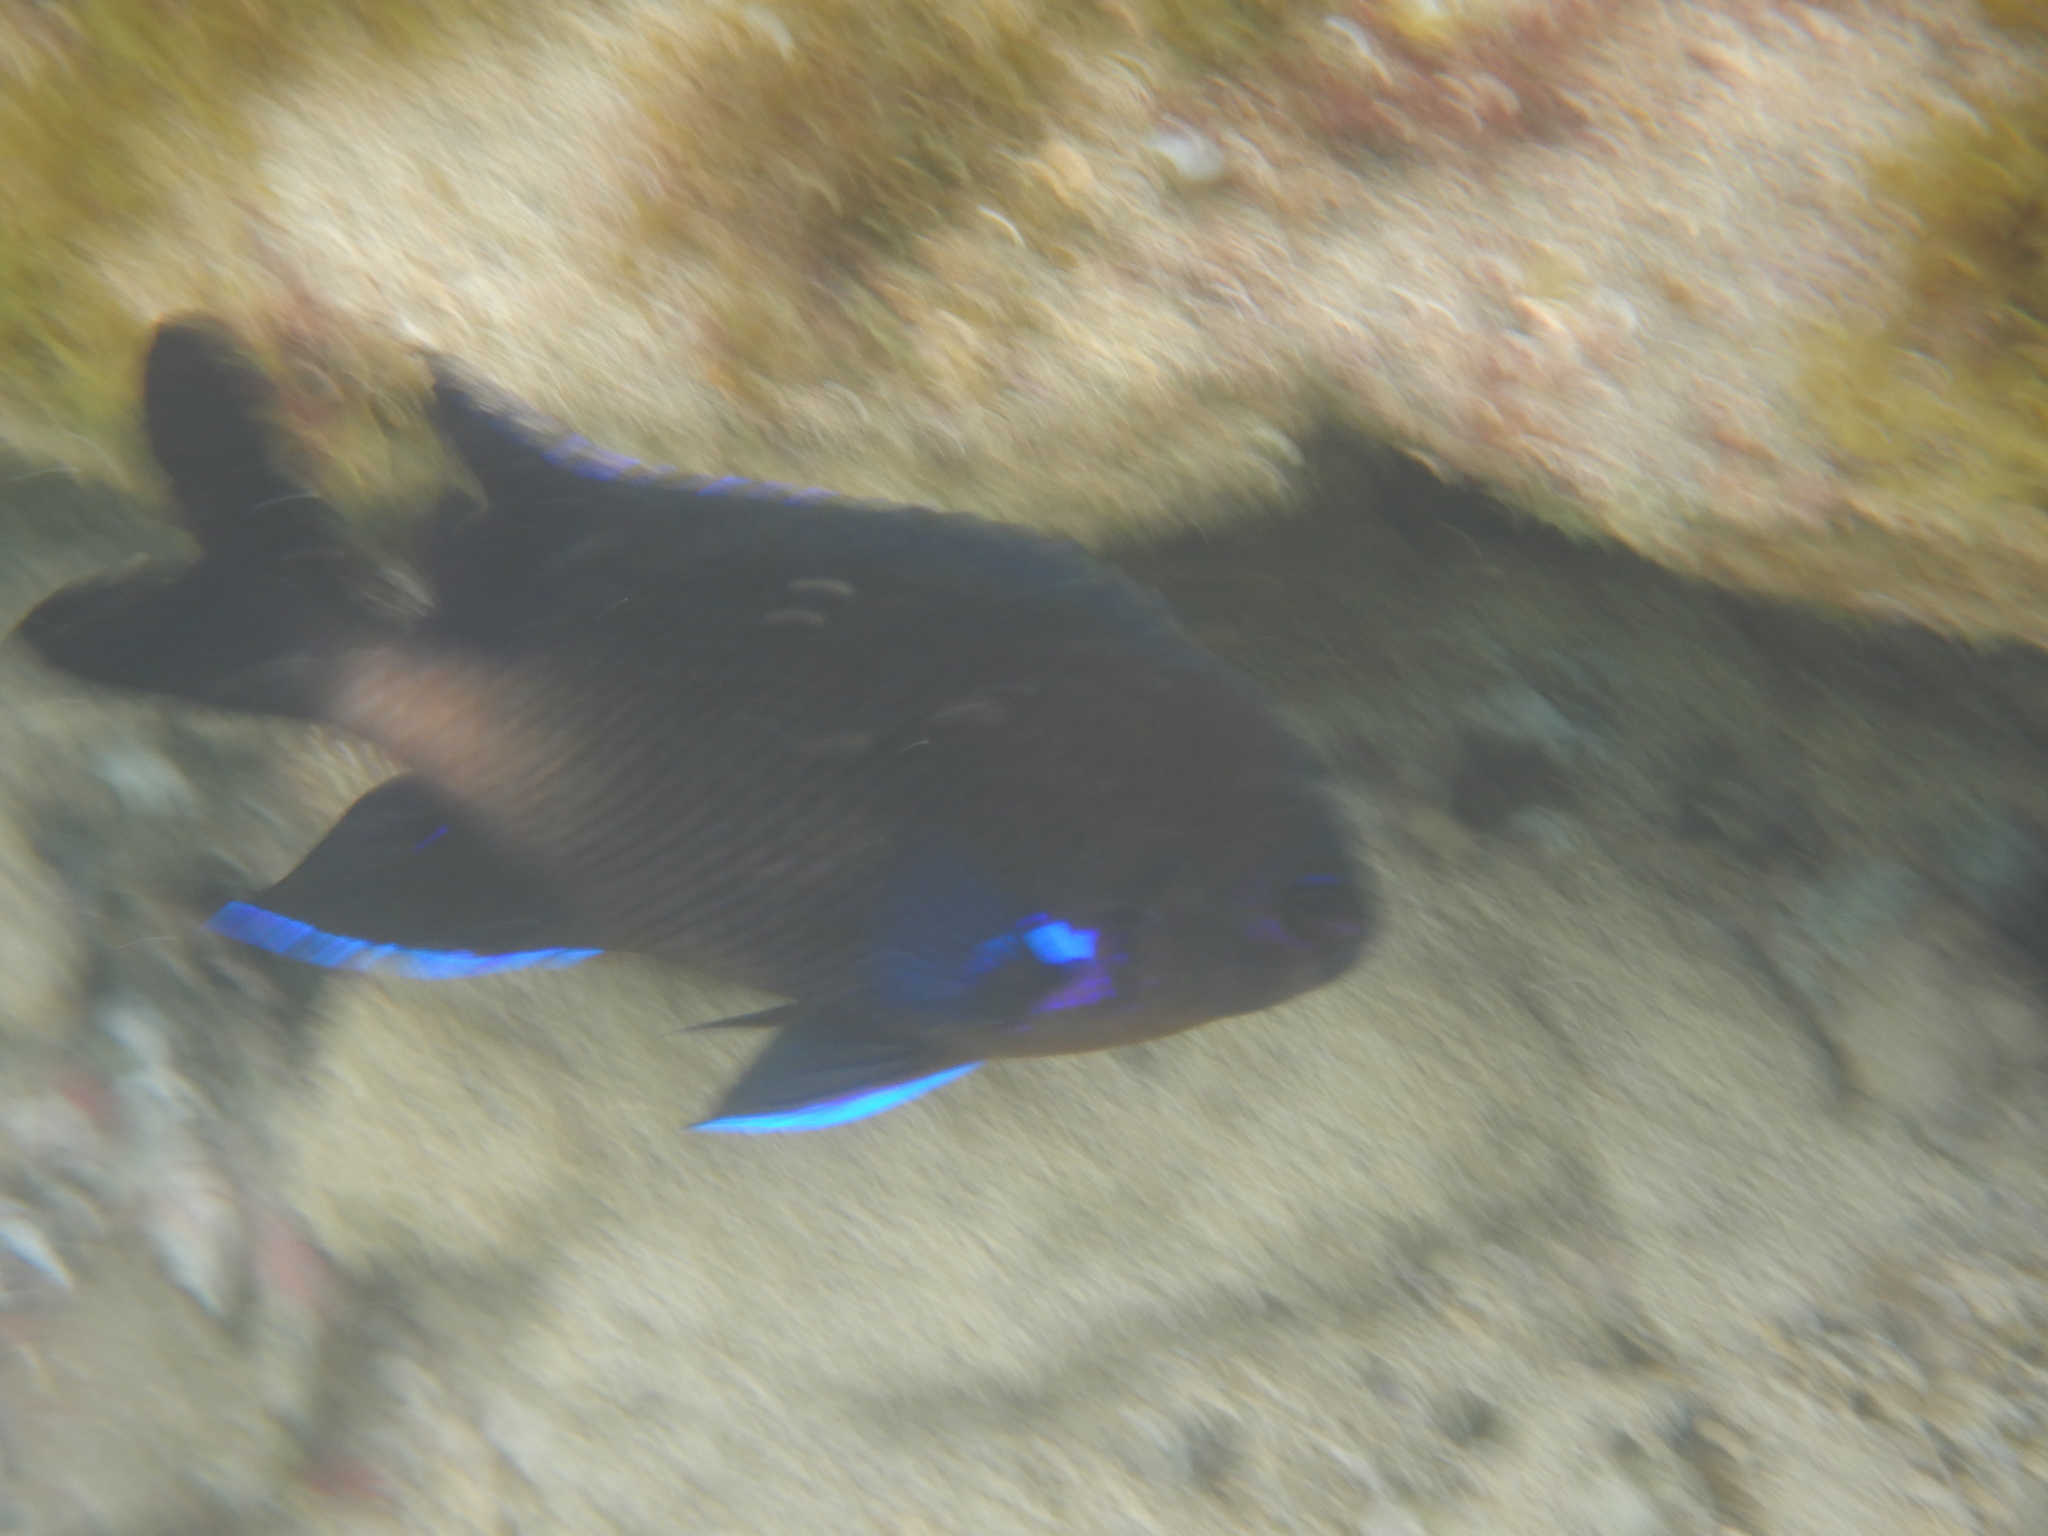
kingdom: Animalia
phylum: Chordata
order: Perciformes
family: Pomacentridae
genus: Similiparma
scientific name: Similiparma lurida
